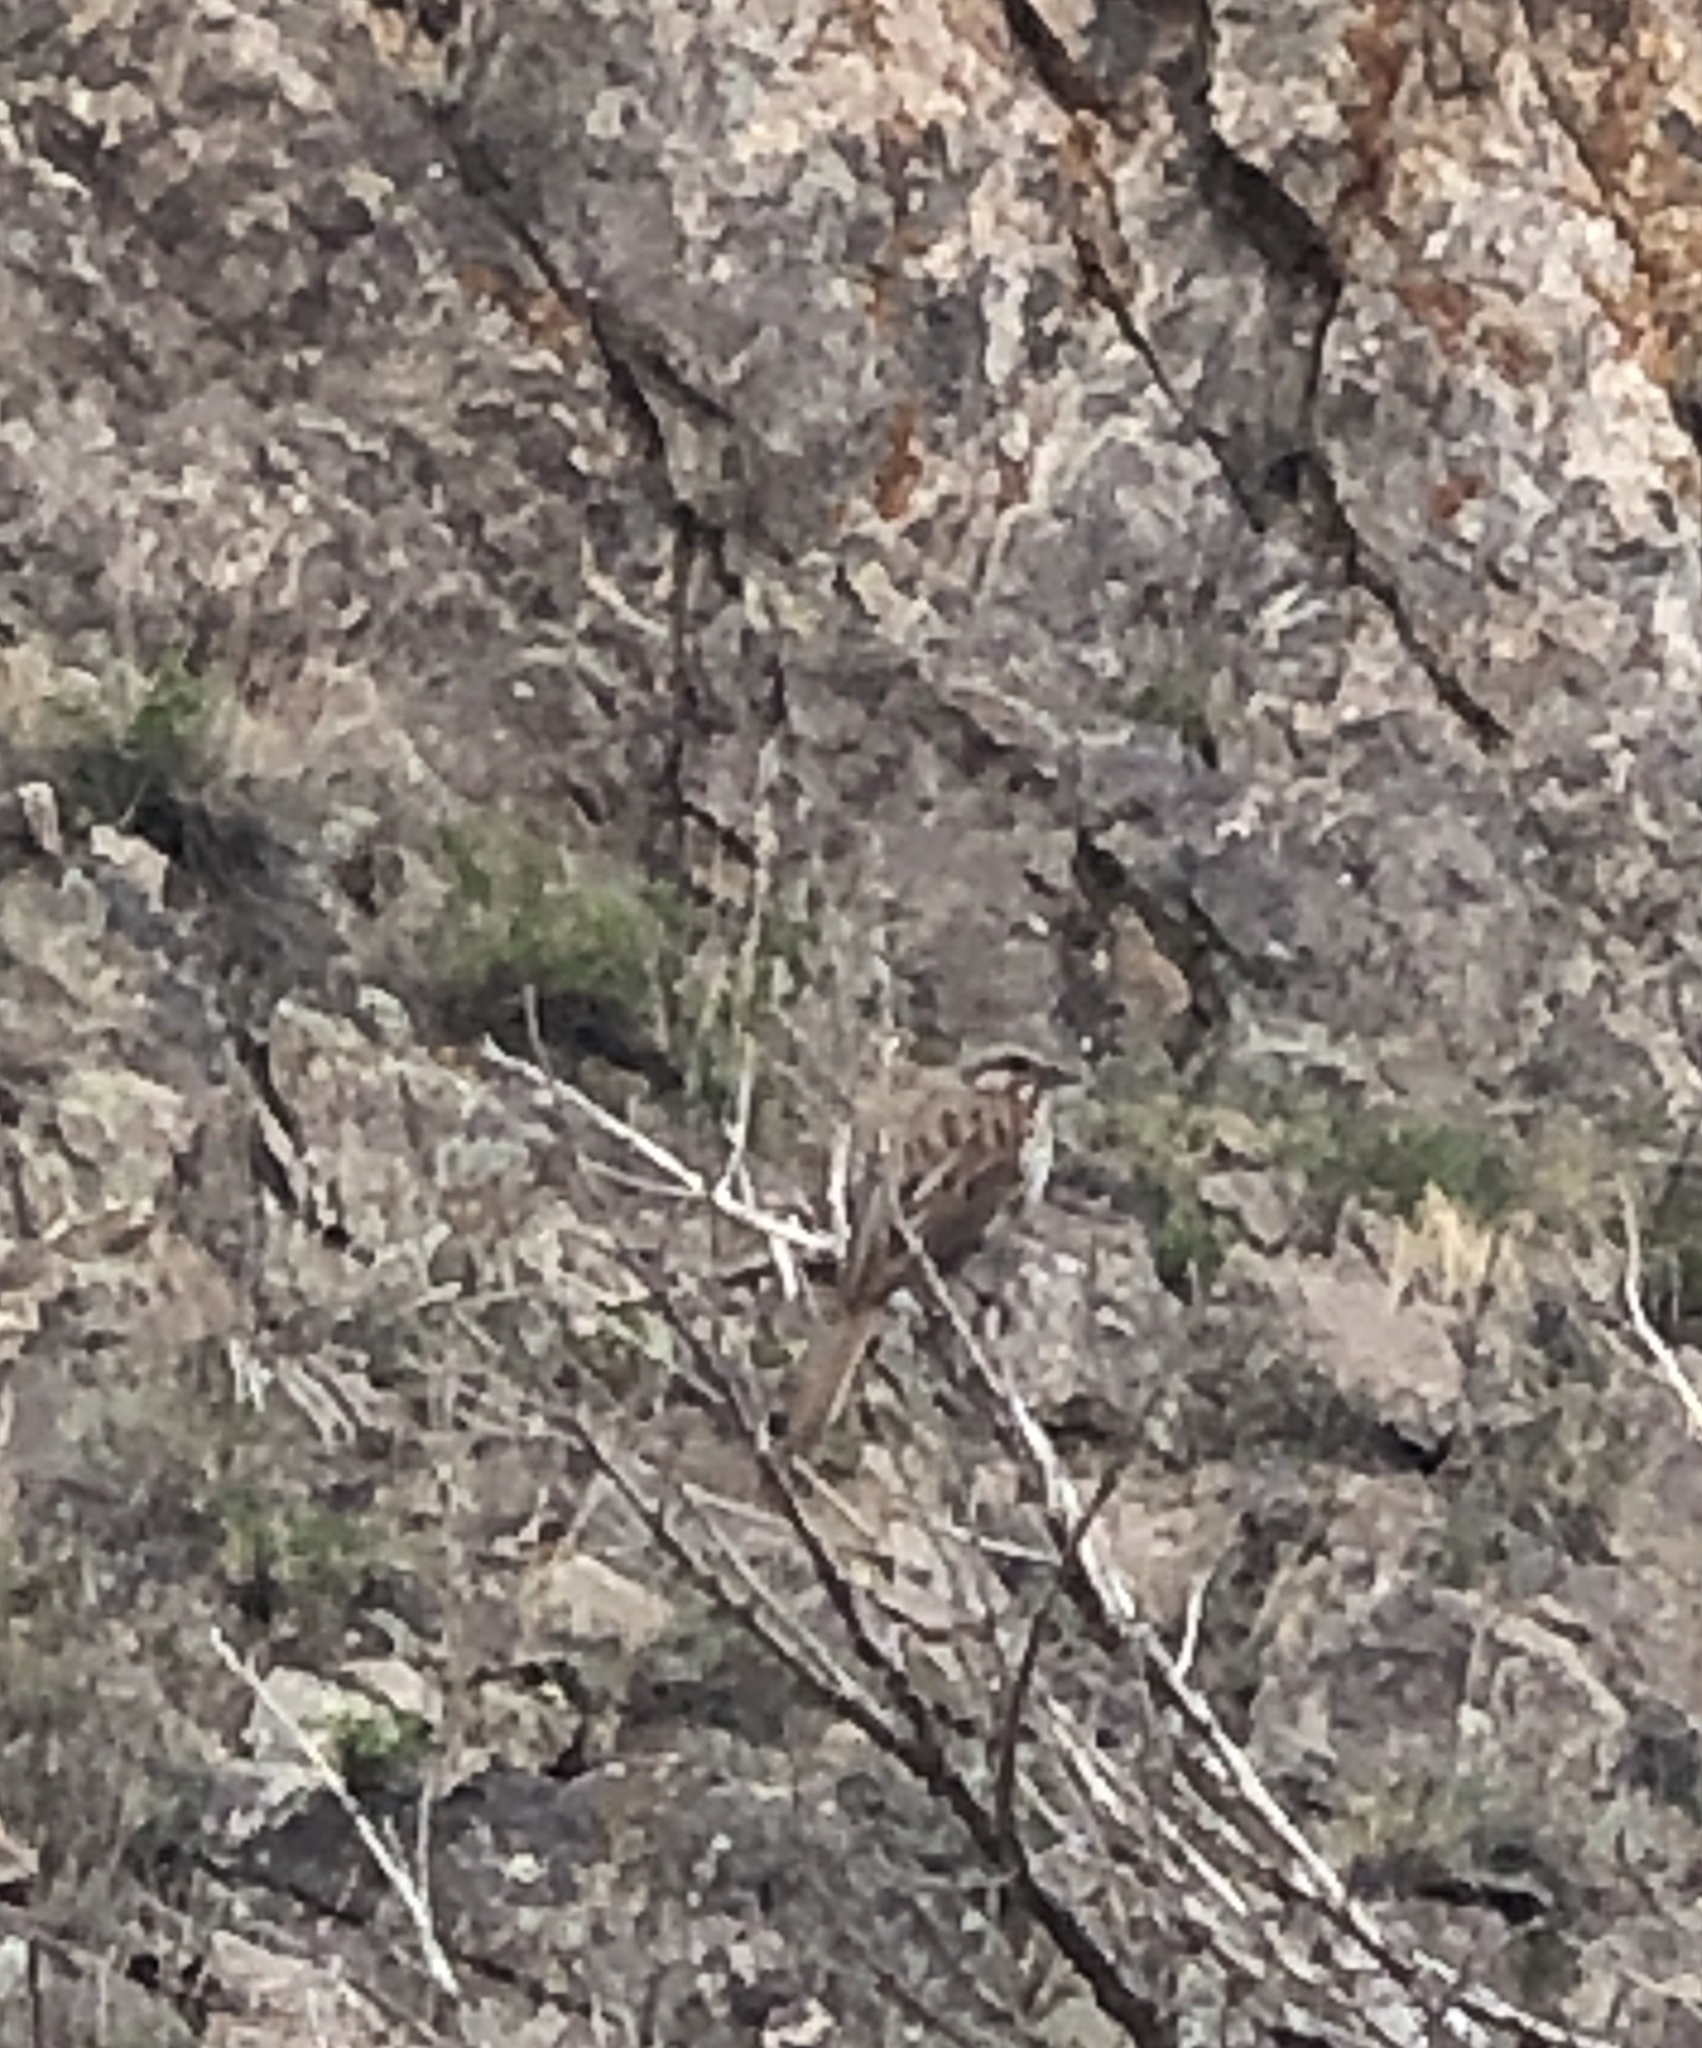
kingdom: Animalia
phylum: Chordata
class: Aves
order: Passeriformes
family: Passerellidae
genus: Melospiza
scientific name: Melospiza melodia
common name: Song sparrow
